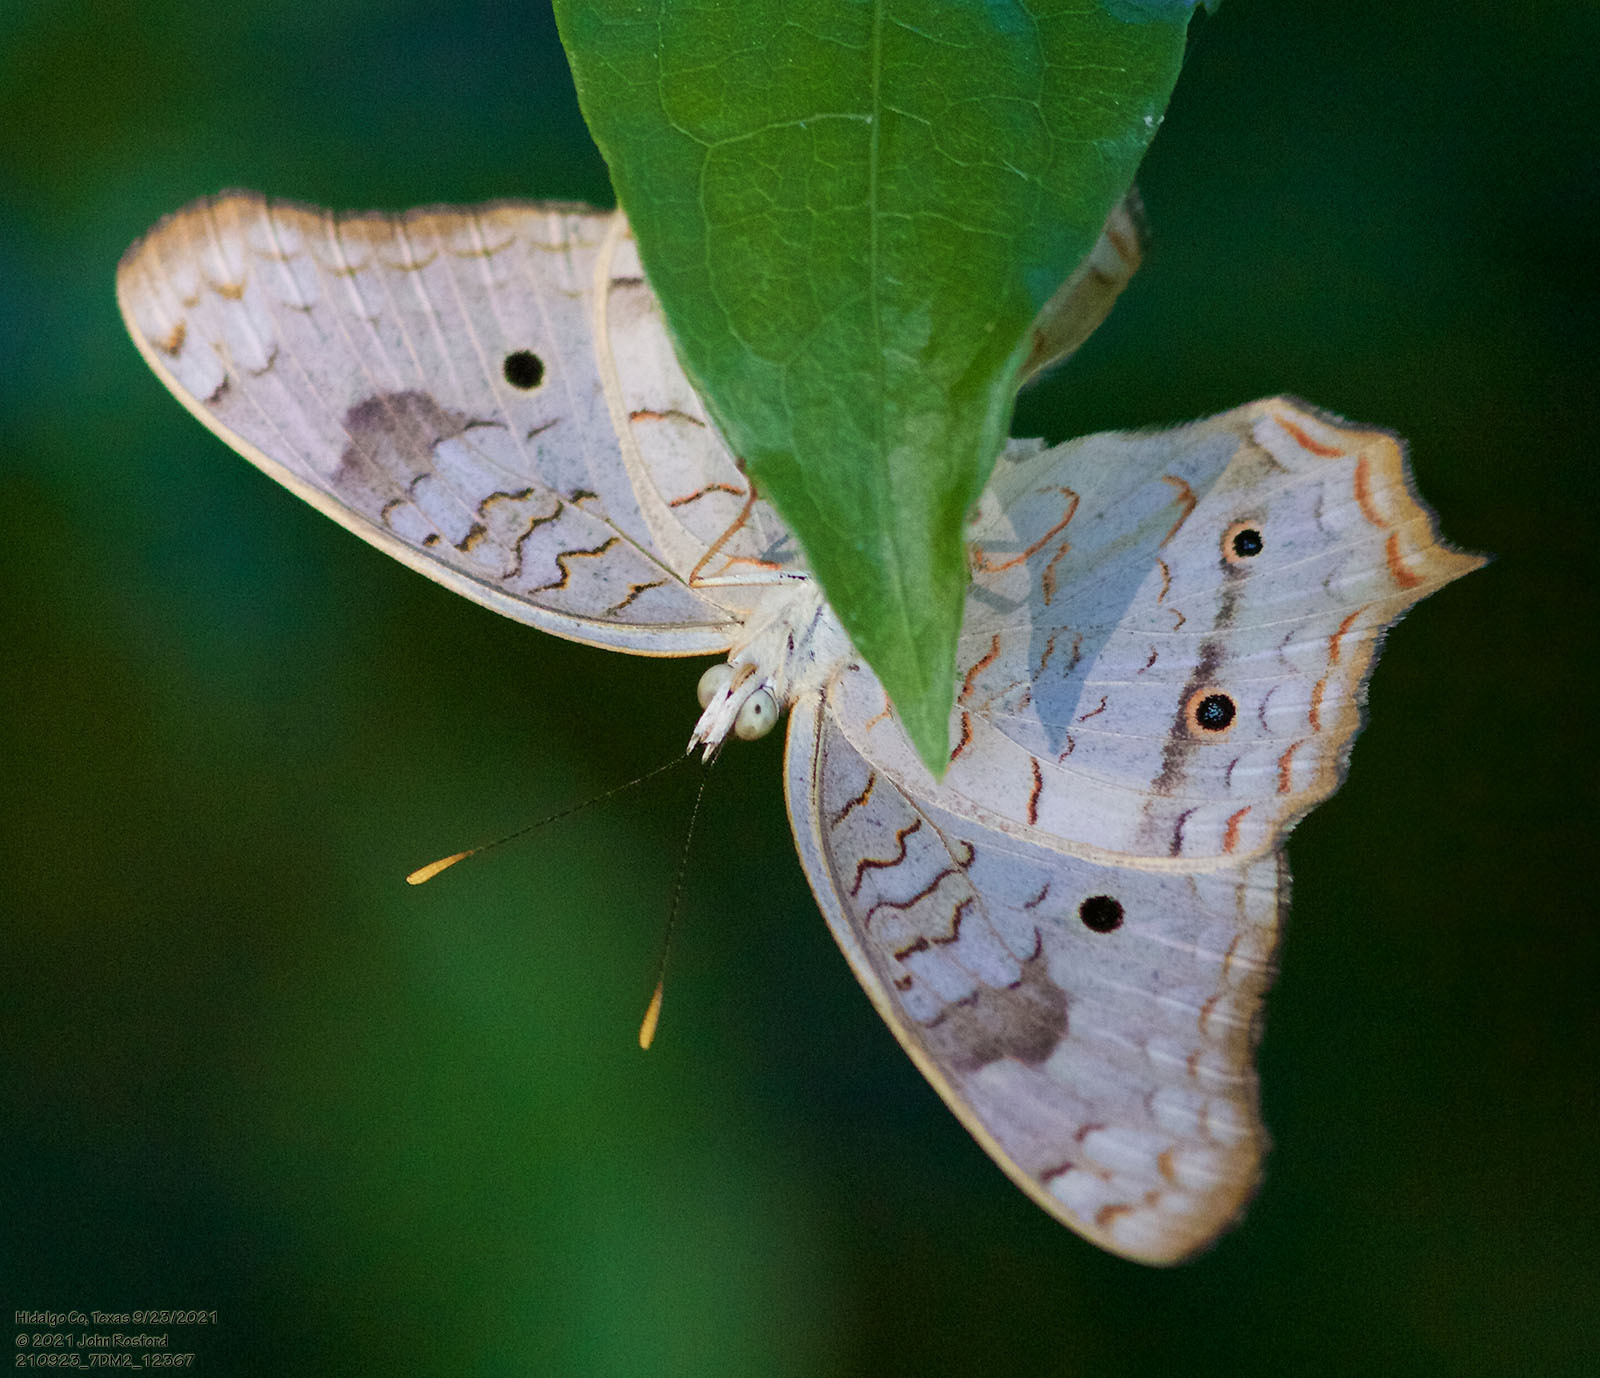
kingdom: Animalia
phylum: Arthropoda
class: Insecta
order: Lepidoptera
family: Nymphalidae
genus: Anartia
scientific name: Anartia jatrophae
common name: White peacock
